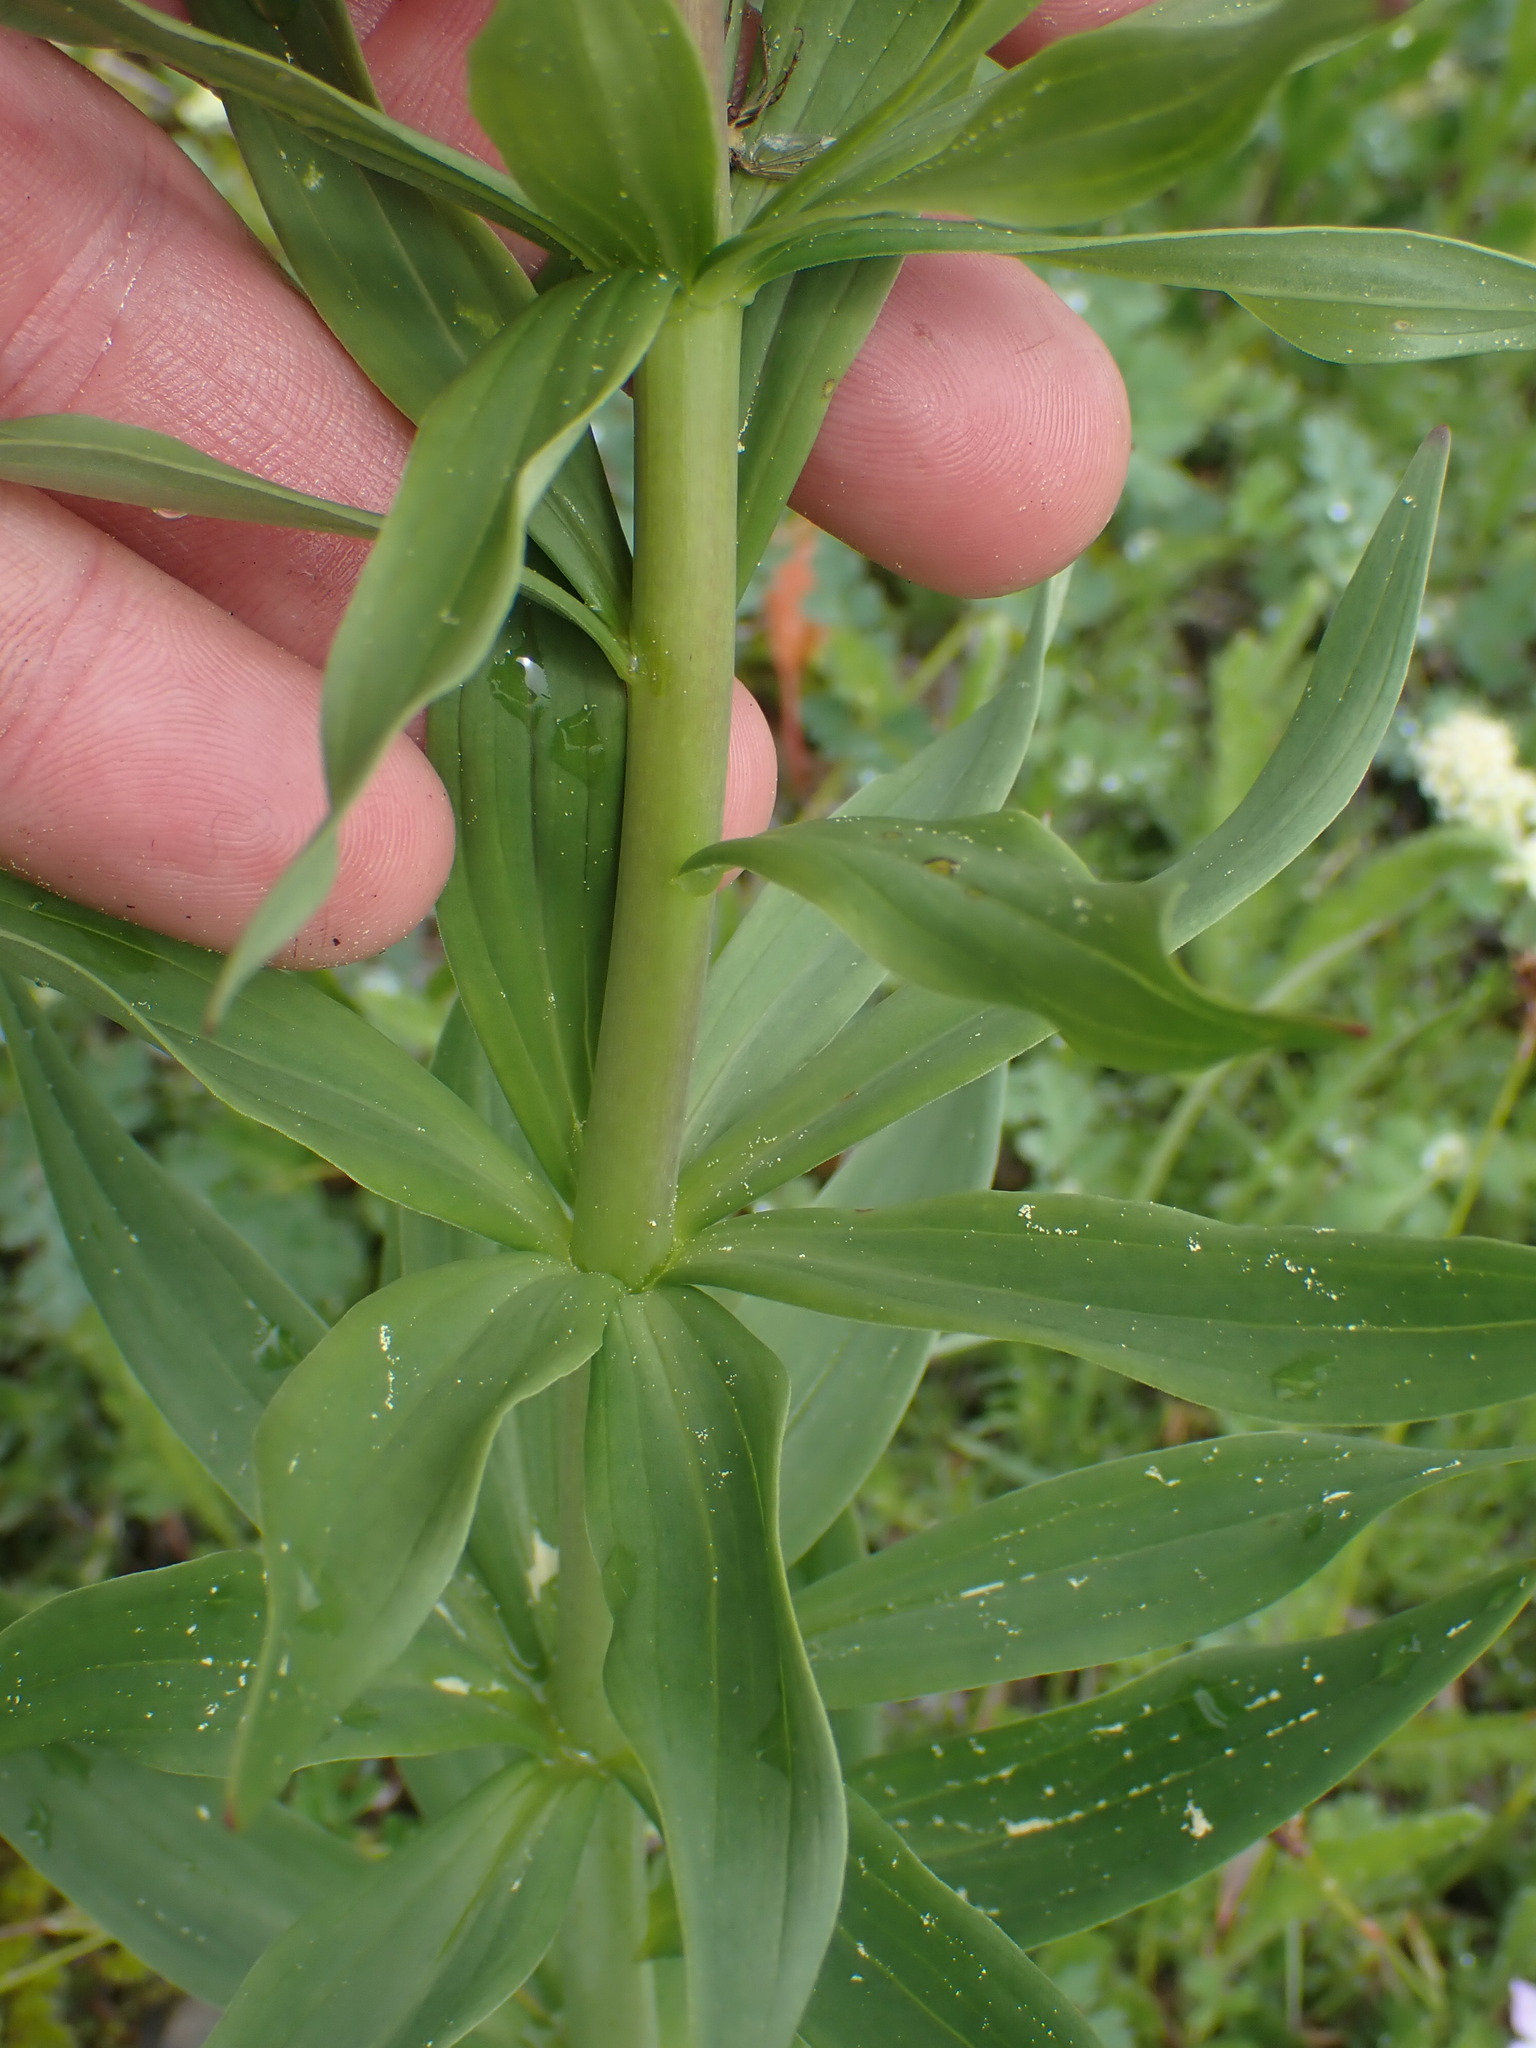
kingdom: Plantae
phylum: Tracheophyta
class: Liliopsida
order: Liliales
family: Liliaceae
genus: Lilium
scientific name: Lilium columbianum
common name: Columbia lily
